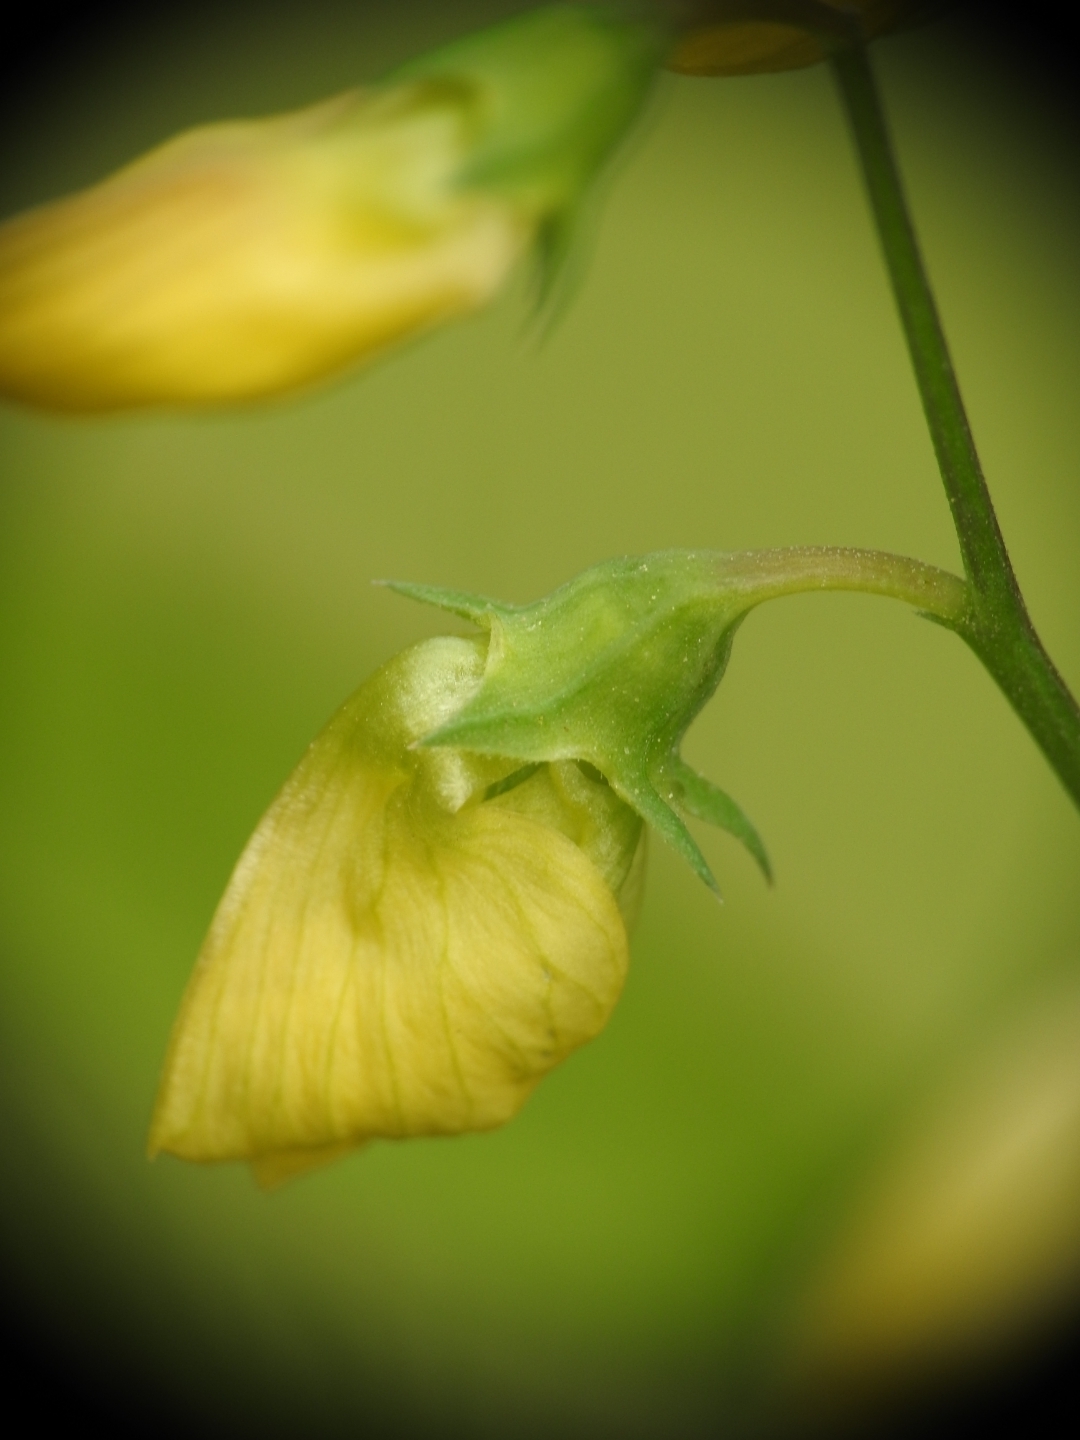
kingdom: Plantae
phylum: Tracheophyta
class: Magnoliopsida
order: Fabales
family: Fabaceae
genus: Lathyrus
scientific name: Lathyrus annuus
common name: Fodder pea
